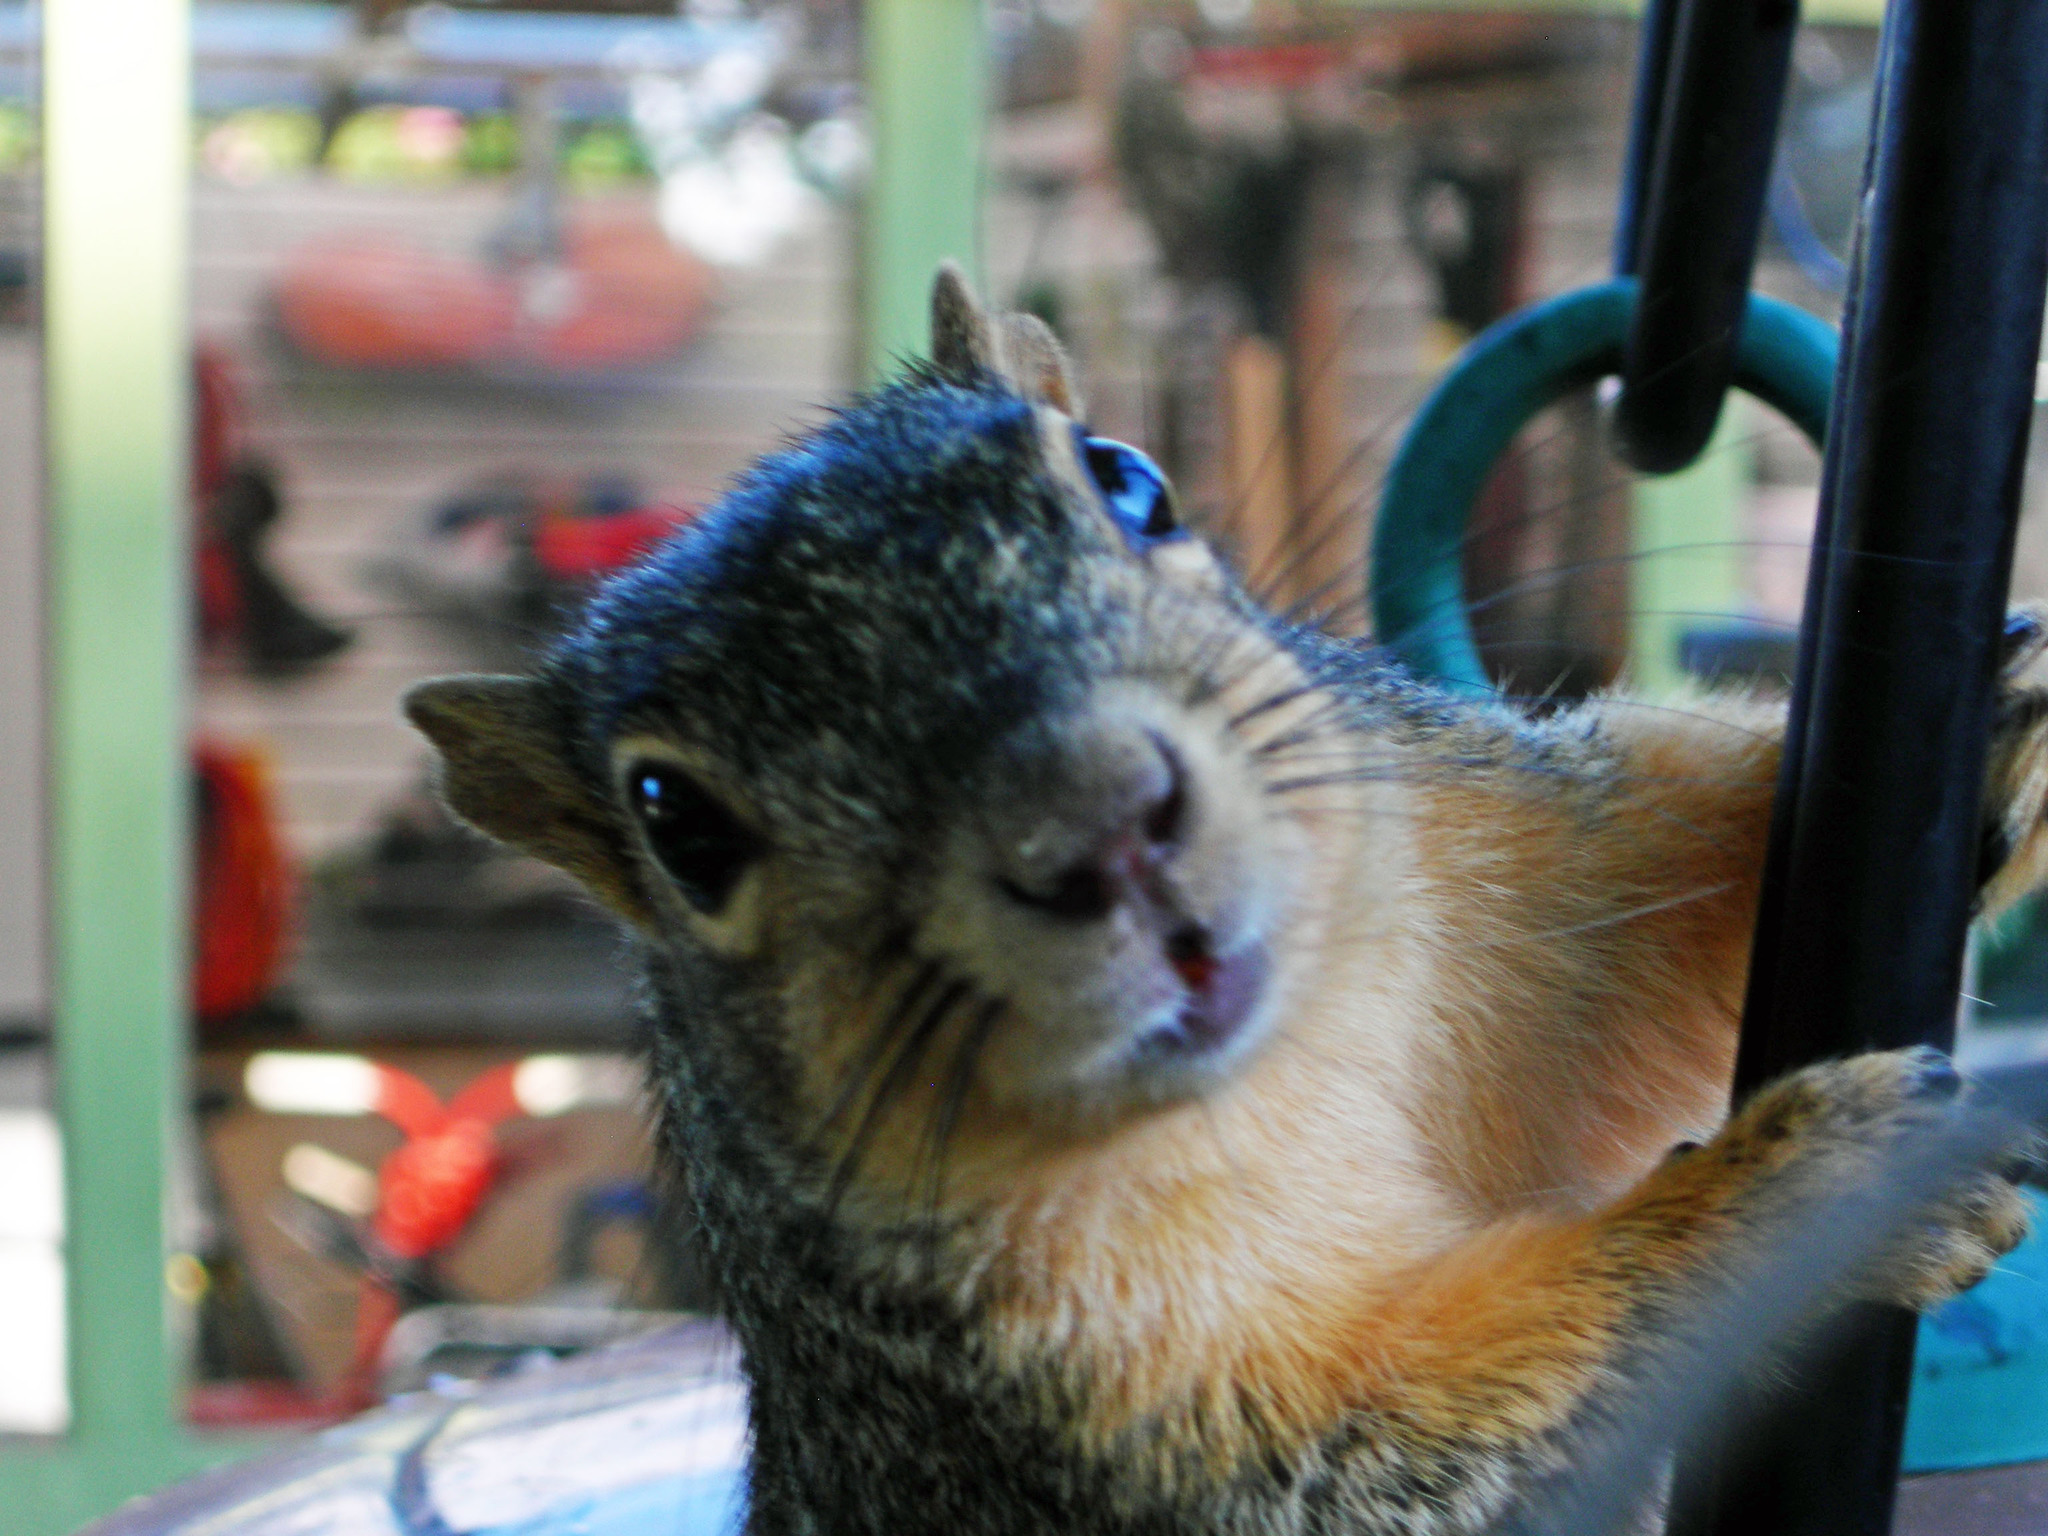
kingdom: Animalia
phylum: Chordata
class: Mammalia
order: Rodentia
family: Sciuridae
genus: Sciurus
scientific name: Sciurus niger
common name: Fox squirrel
